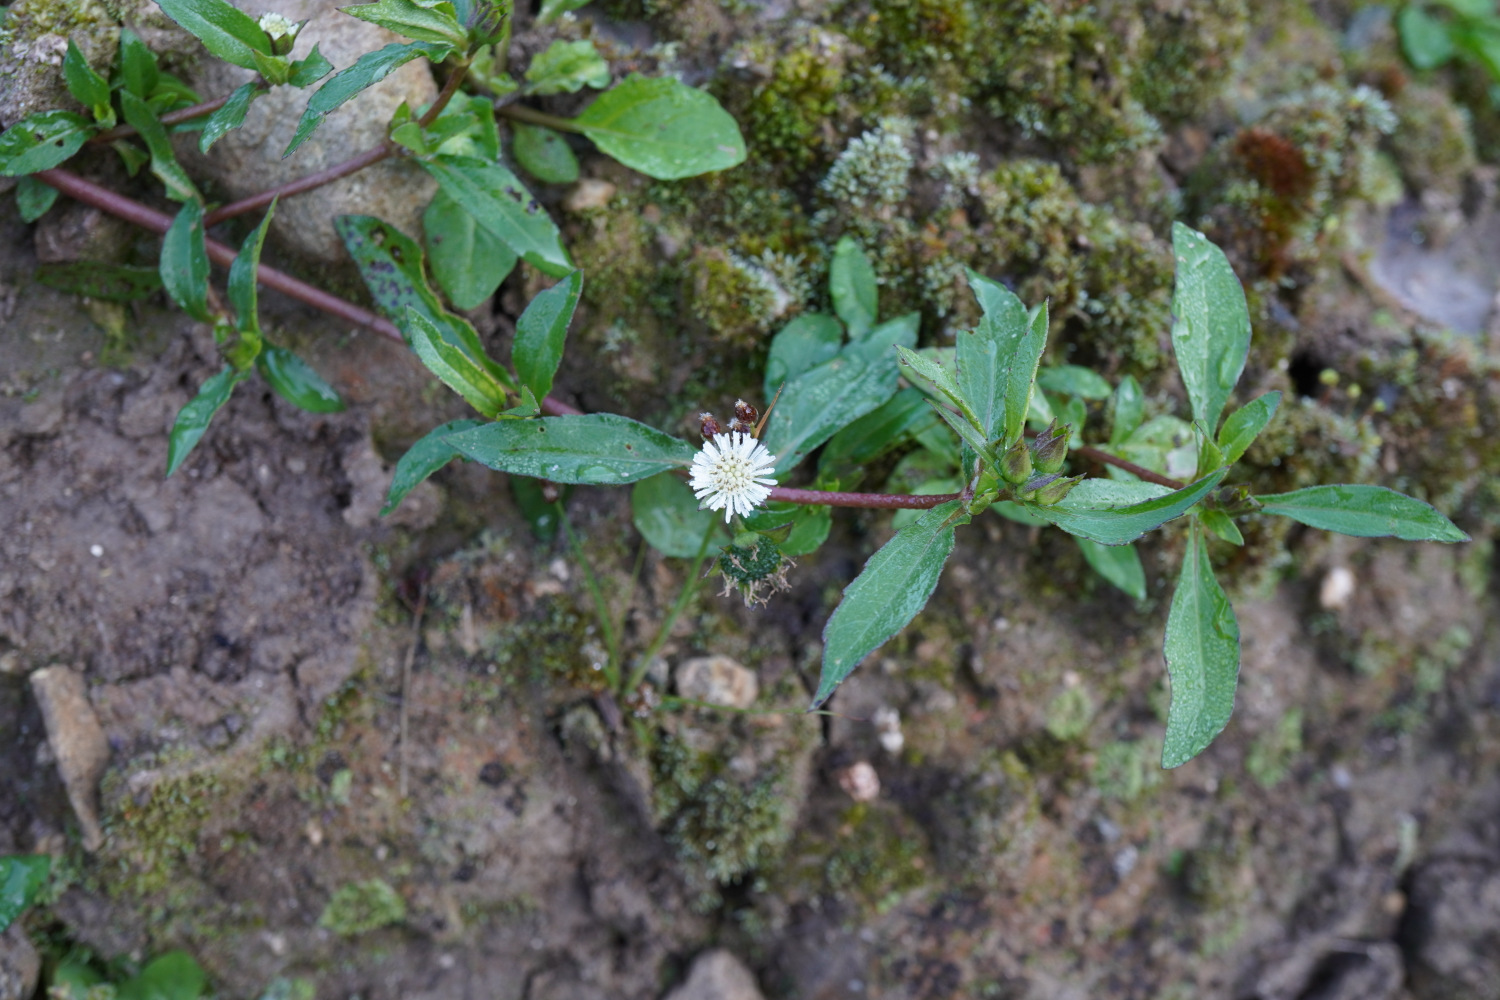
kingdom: Plantae
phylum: Tracheophyta
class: Magnoliopsida
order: Asterales
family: Asteraceae
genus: Eclipta
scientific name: Eclipta prostrata
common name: False daisy
